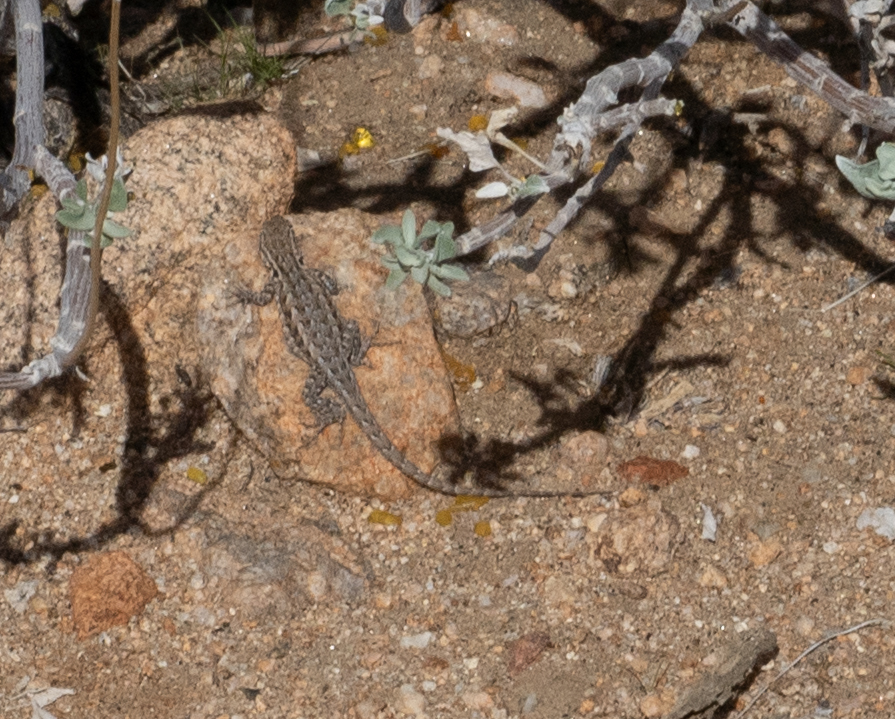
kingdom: Animalia
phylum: Chordata
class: Squamata
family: Phrynosomatidae
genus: Uta
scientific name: Uta stansburiana
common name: Side-blotched lizard
